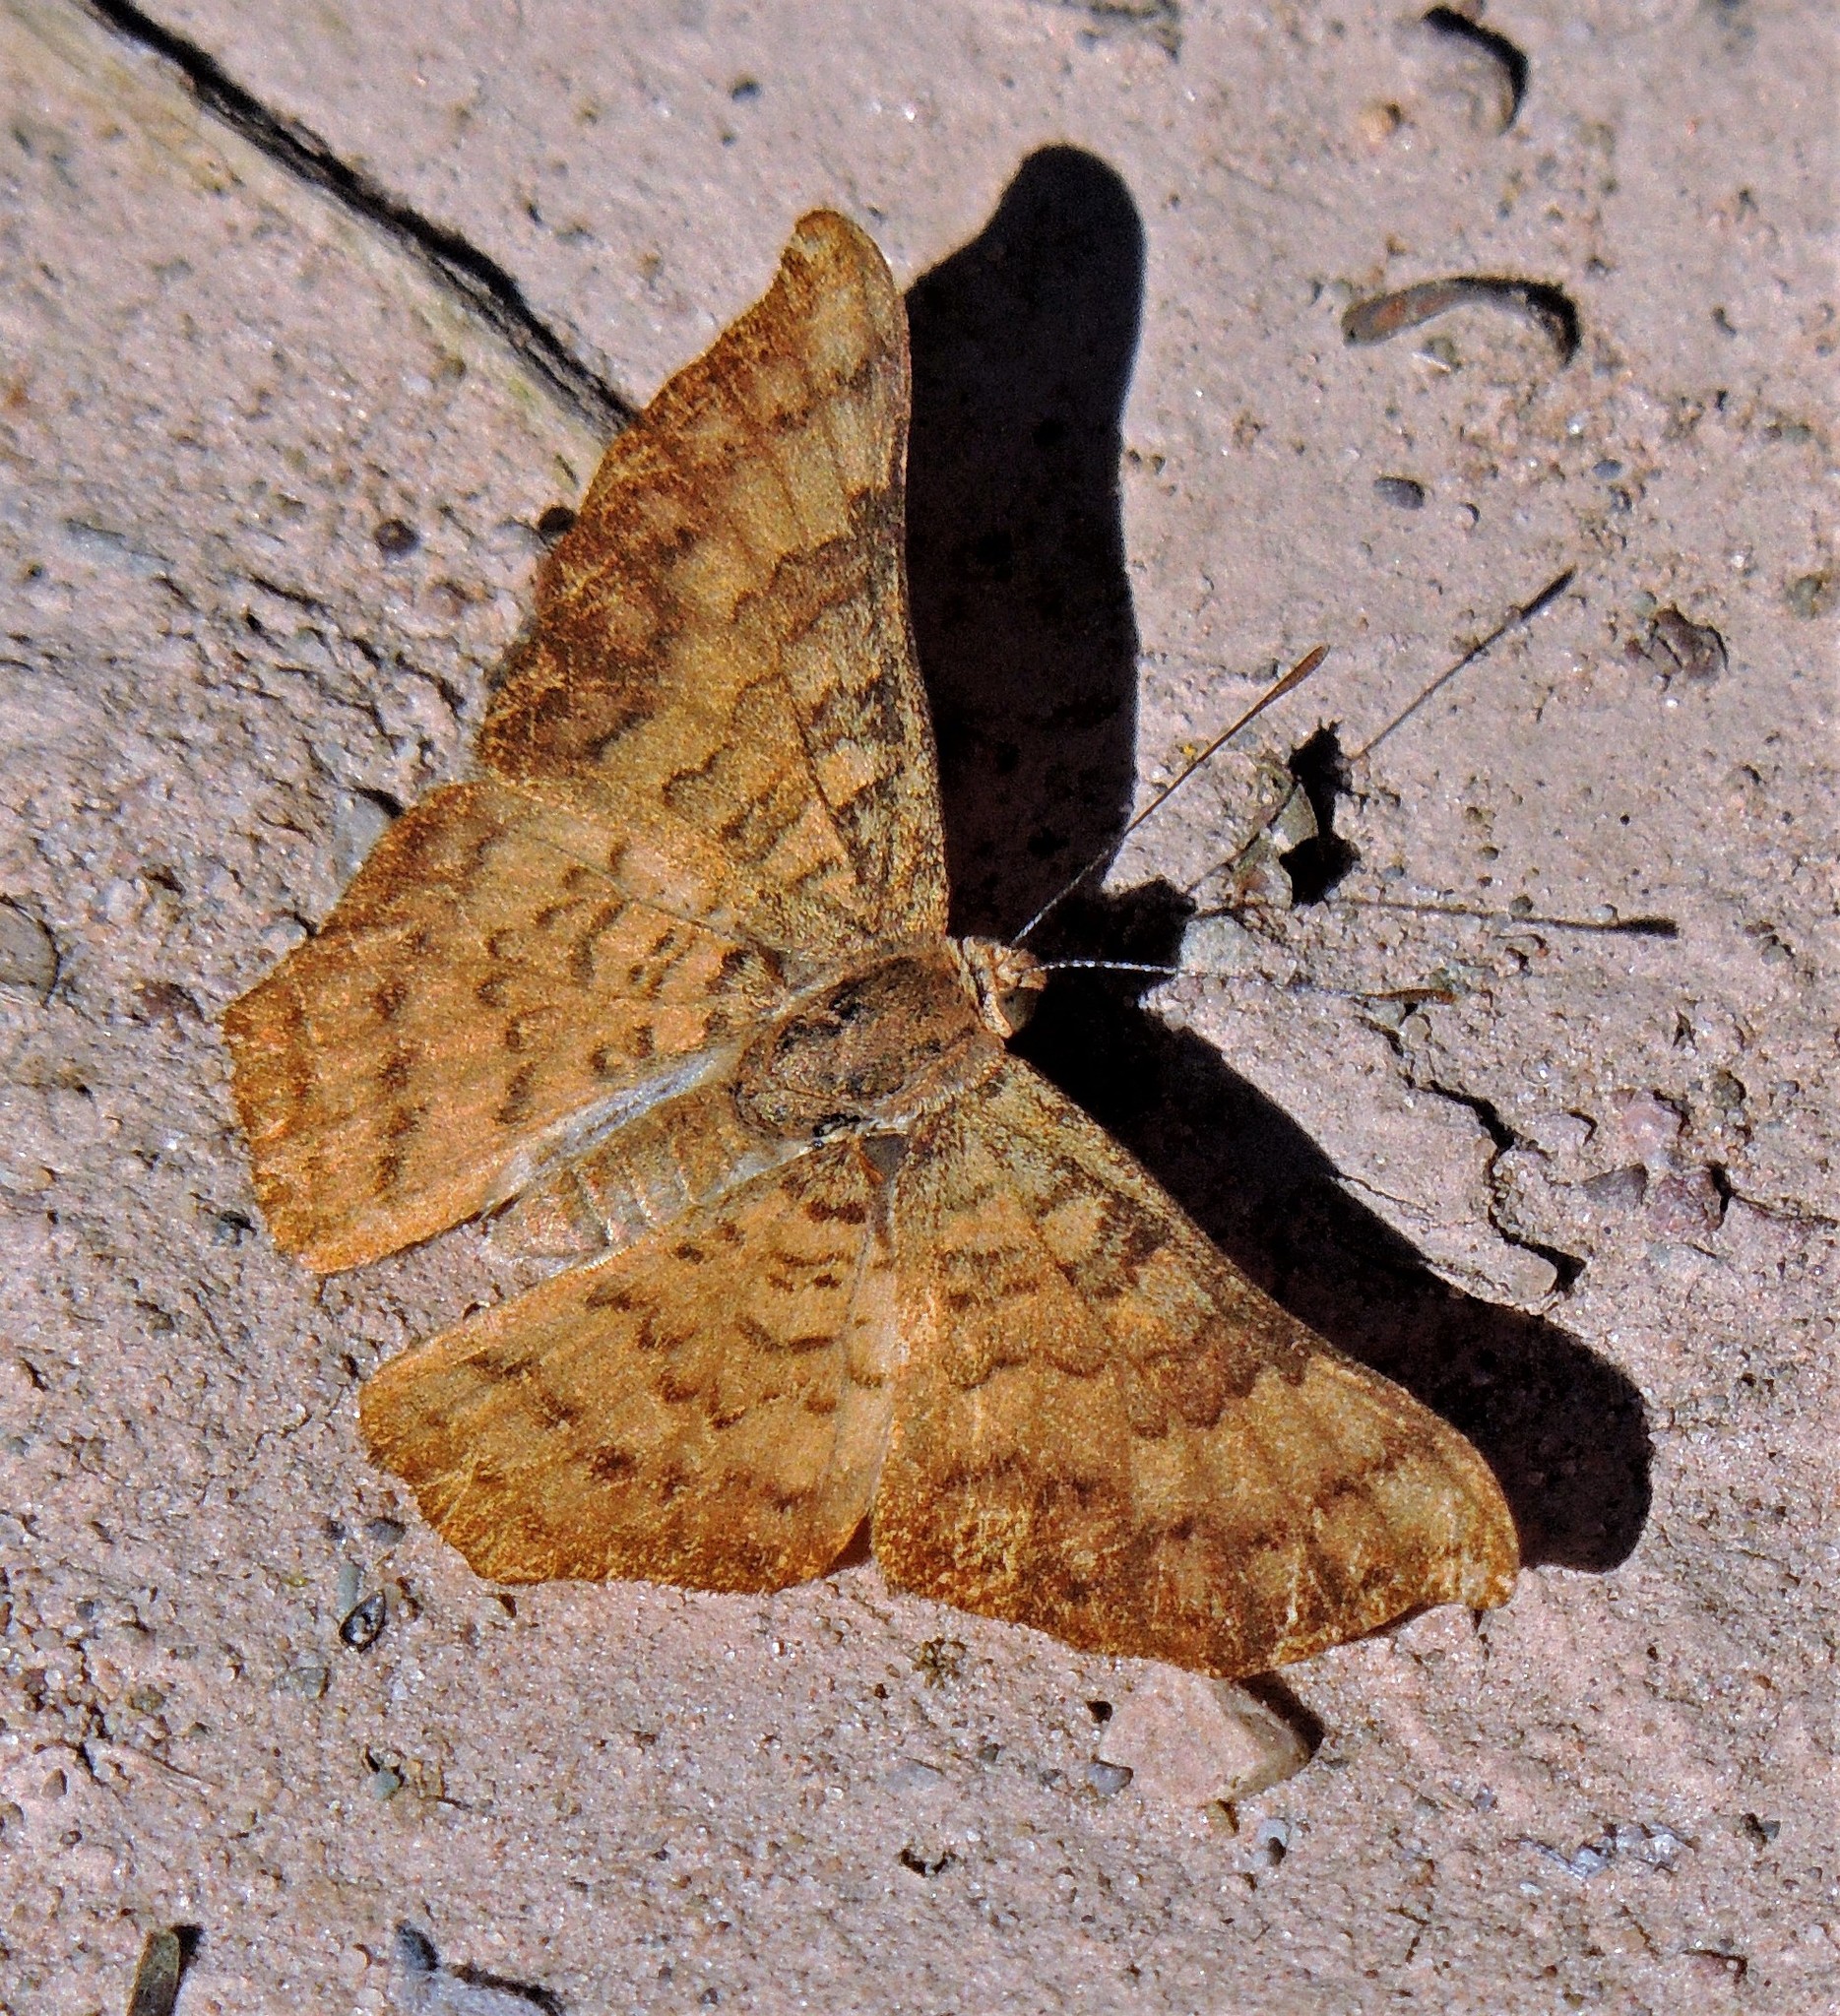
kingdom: Animalia
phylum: Arthropoda
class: Insecta
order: Lepidoptera
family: Lycaenidae
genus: Emesis
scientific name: Emesis angularis
